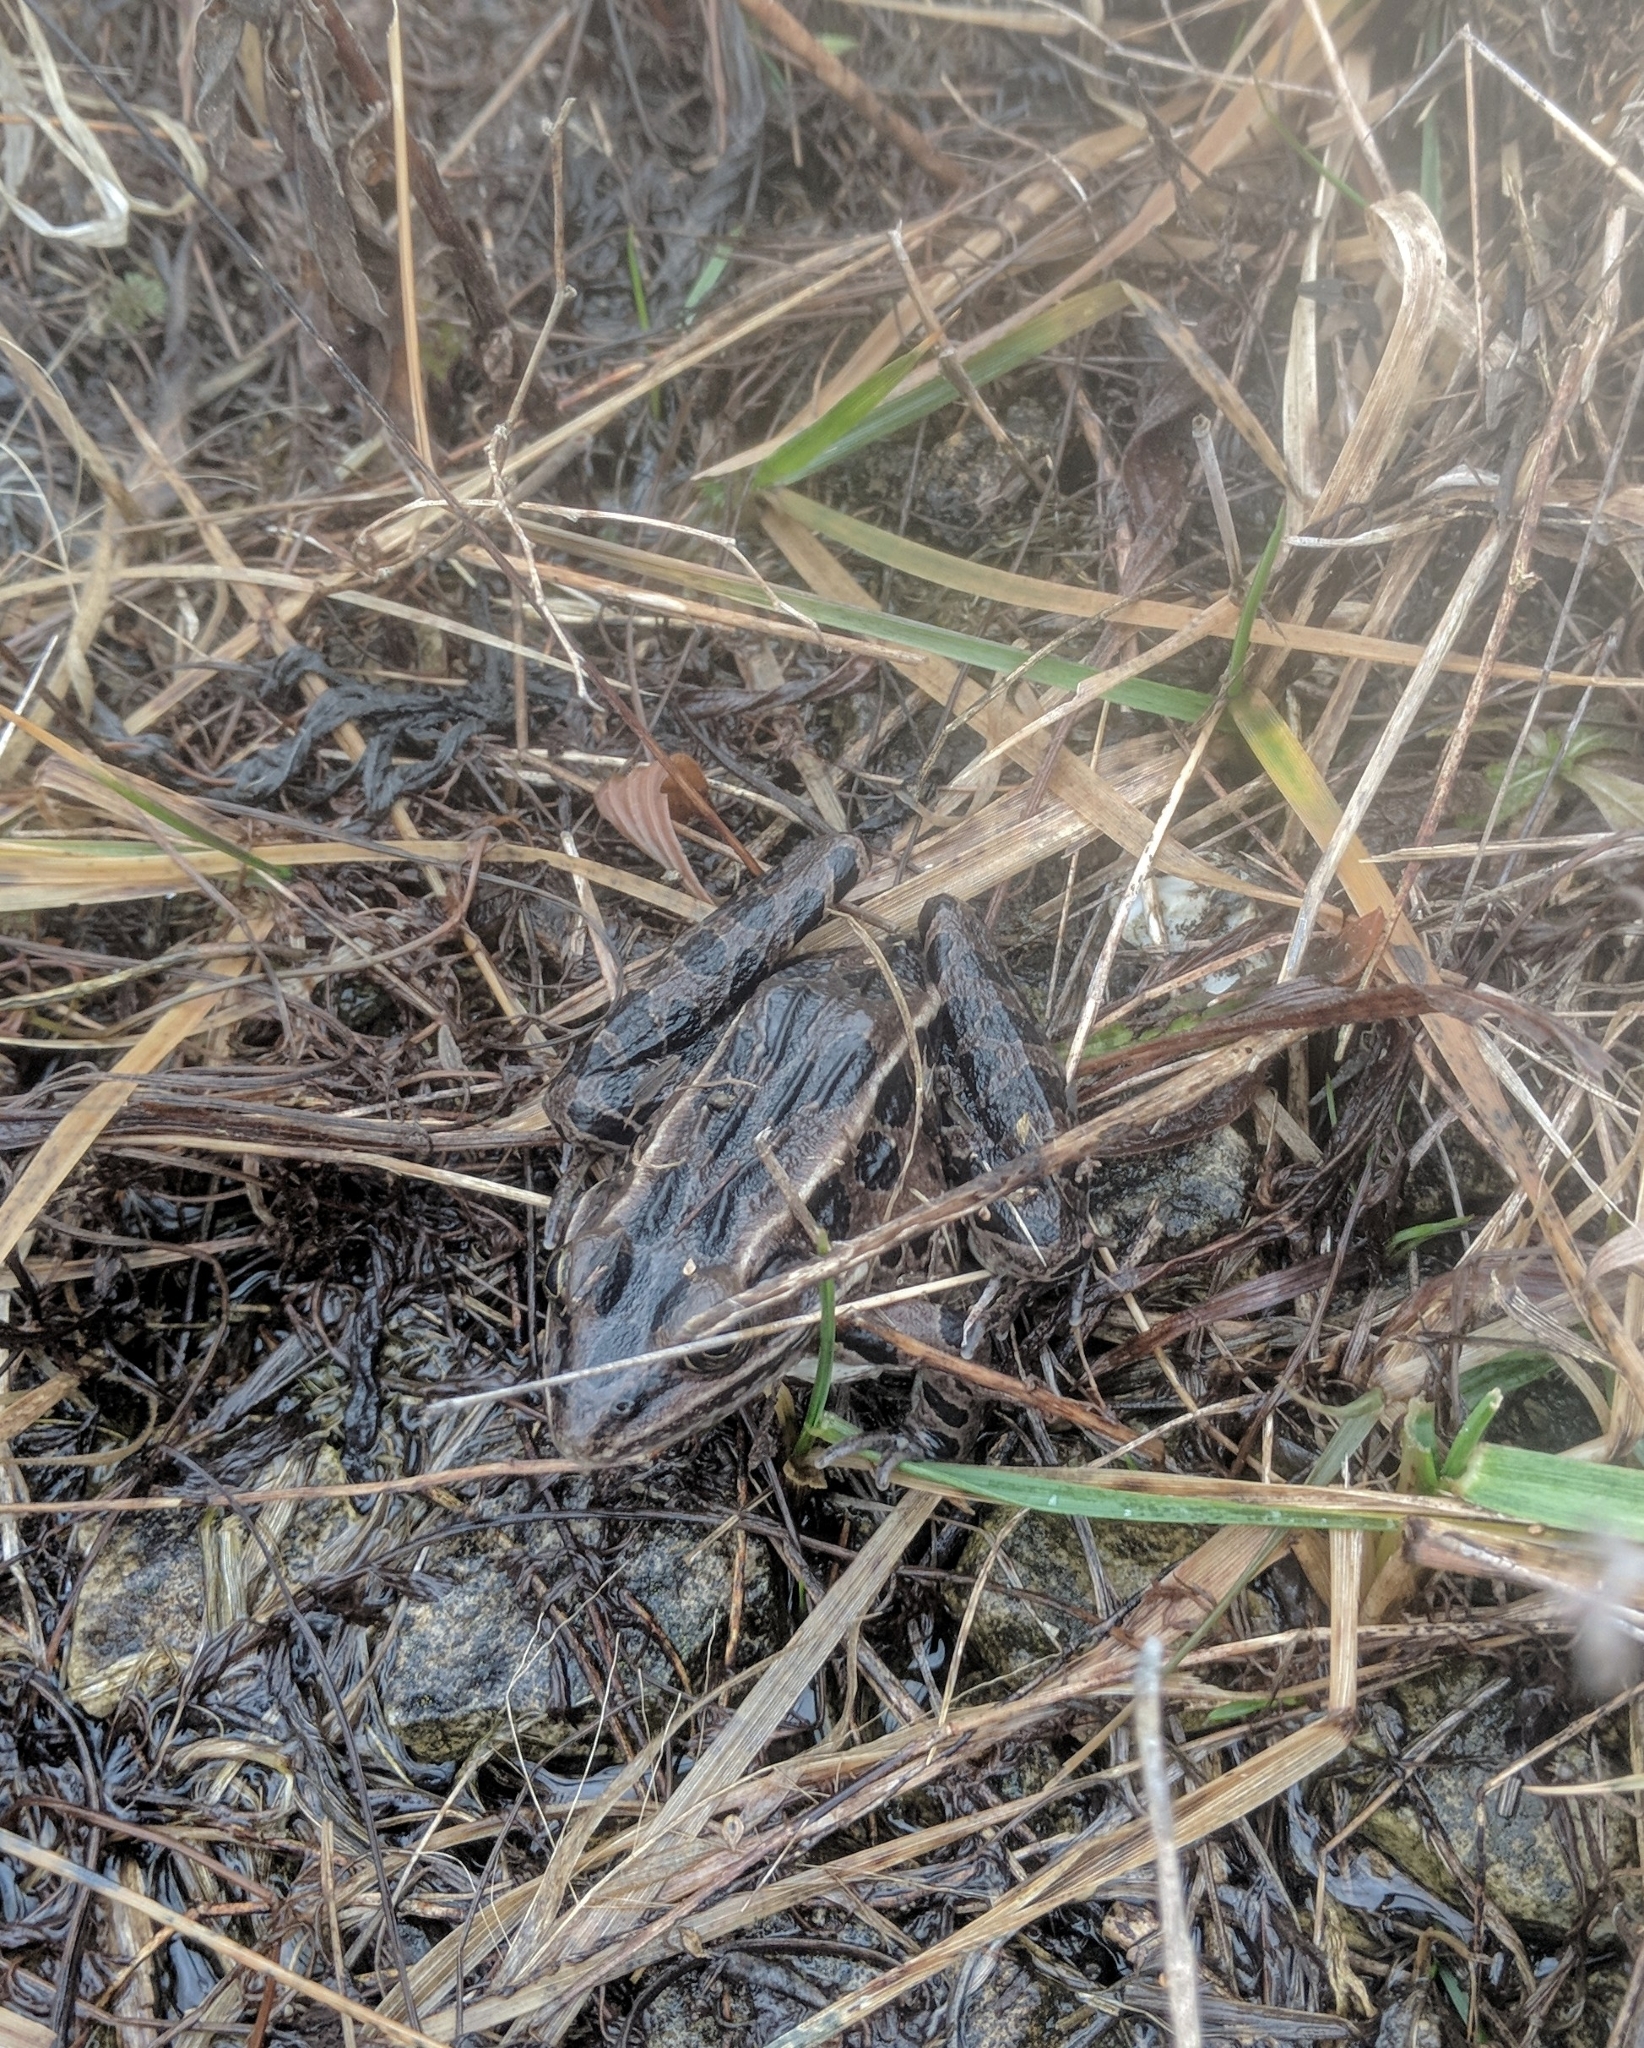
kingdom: Animalia
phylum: Chordata
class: Amphibia
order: Anura
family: Ranidae
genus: Lithobates
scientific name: Lithobates pipiens
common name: Northern leopard frog
